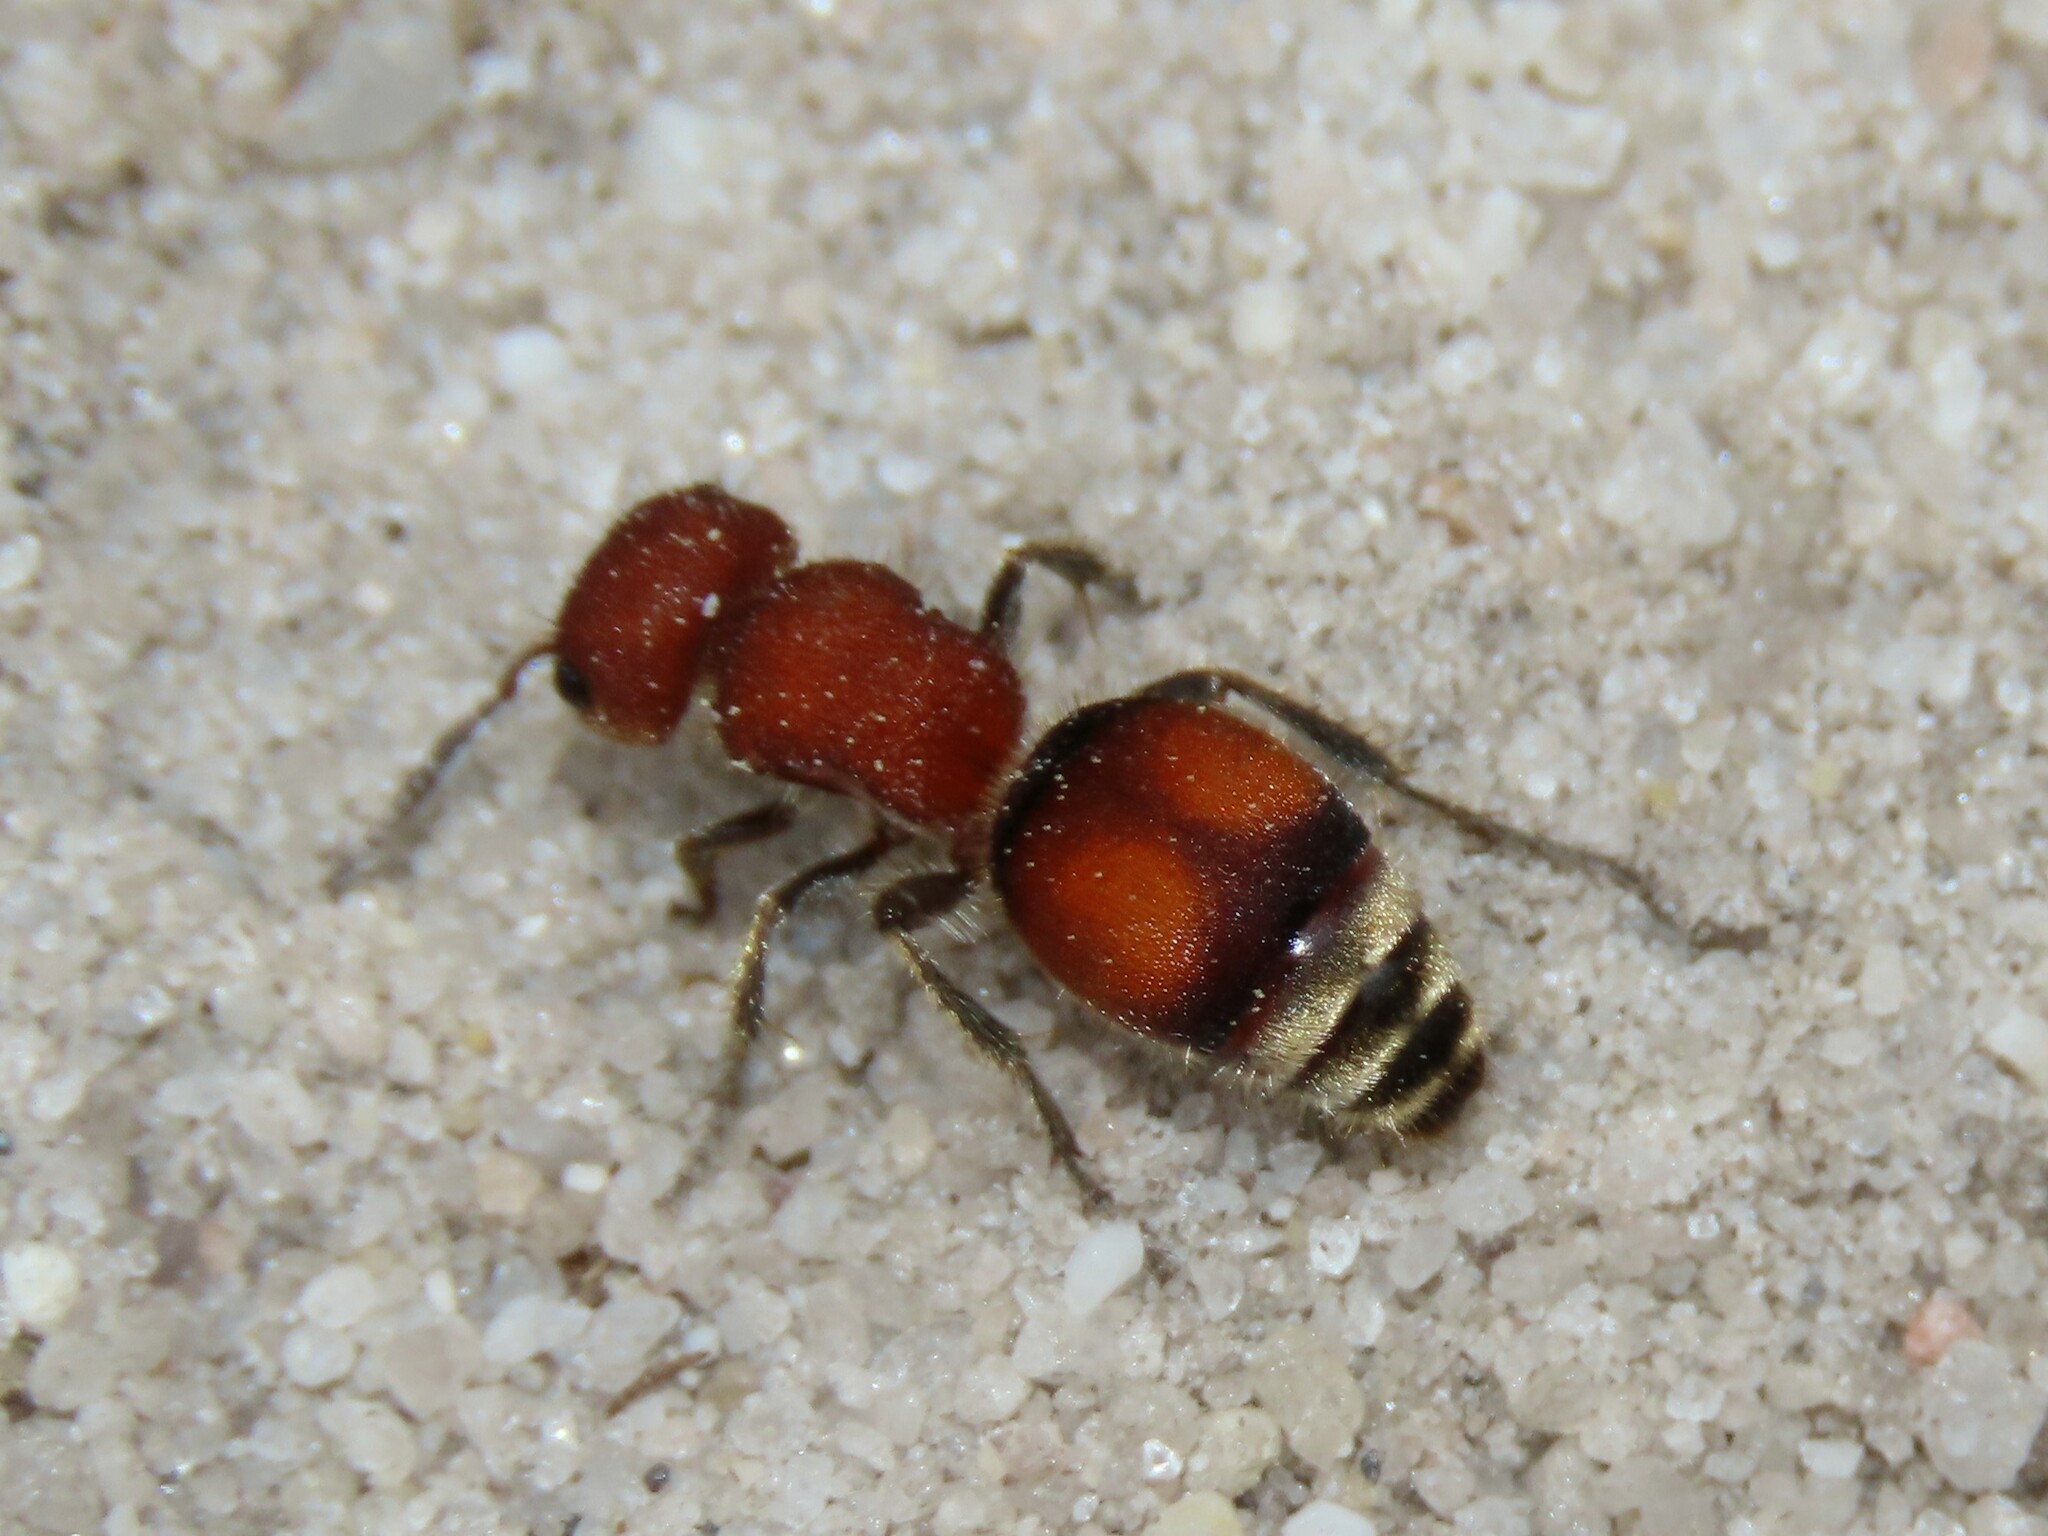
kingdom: Animalia
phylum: Arthropoda
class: Insecta
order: Hymenoptera
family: Mutillidae
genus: Pseudomethoca
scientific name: Pseudomethoca
